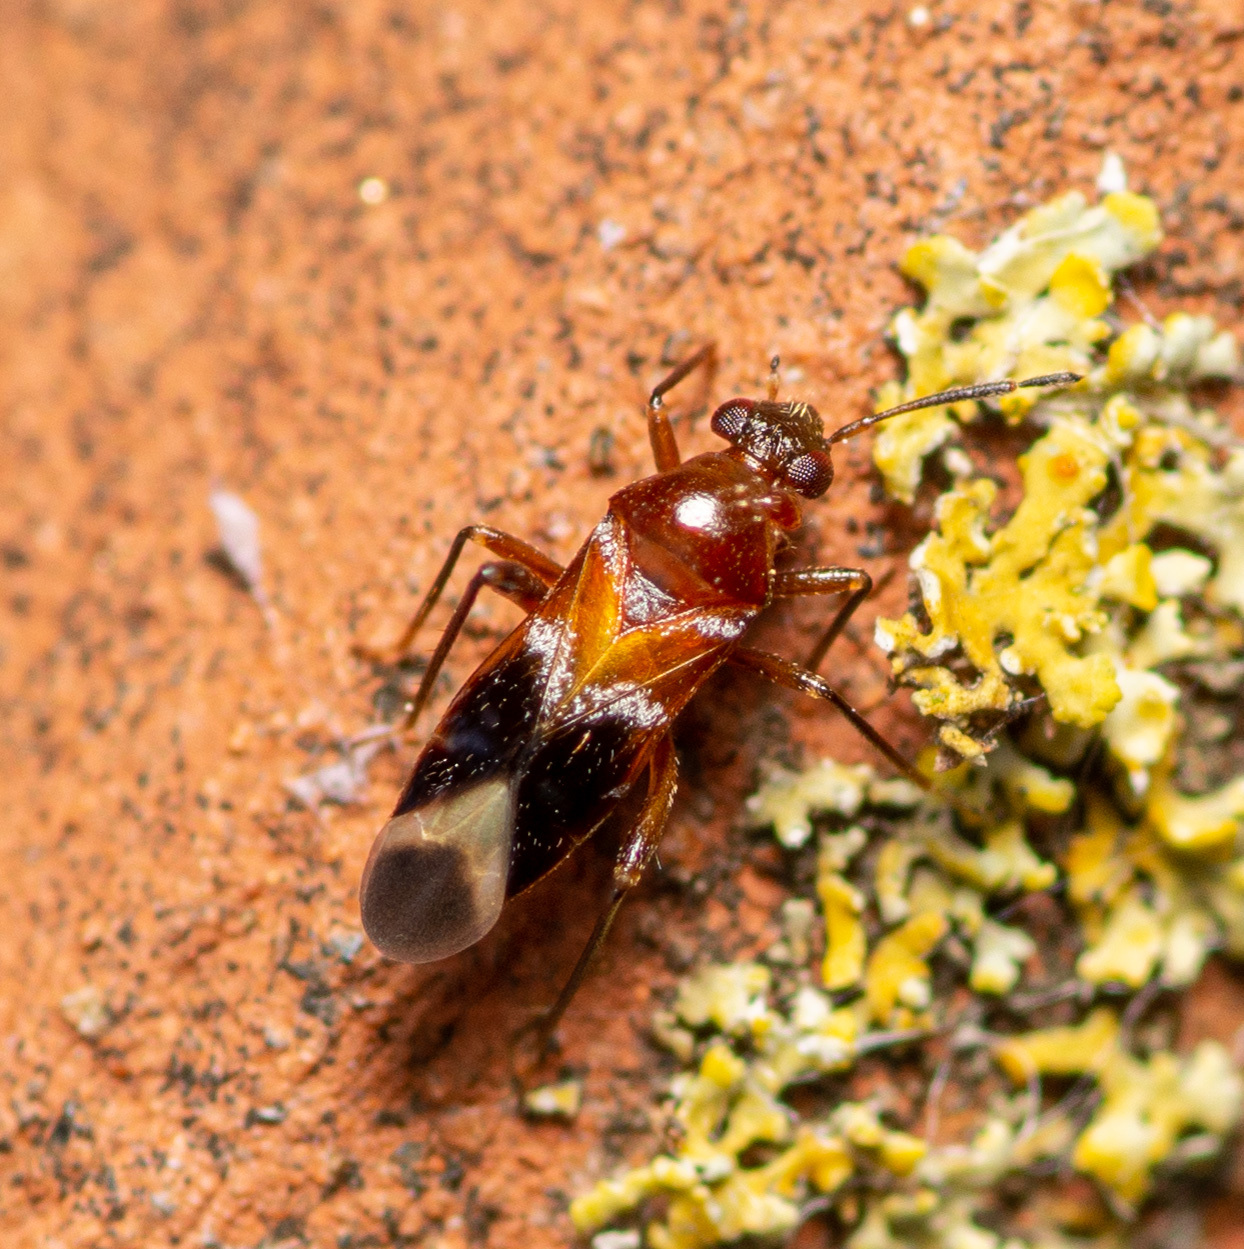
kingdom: Animalia
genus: Pilophoropsidea
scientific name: Pilophoropsidea camela
